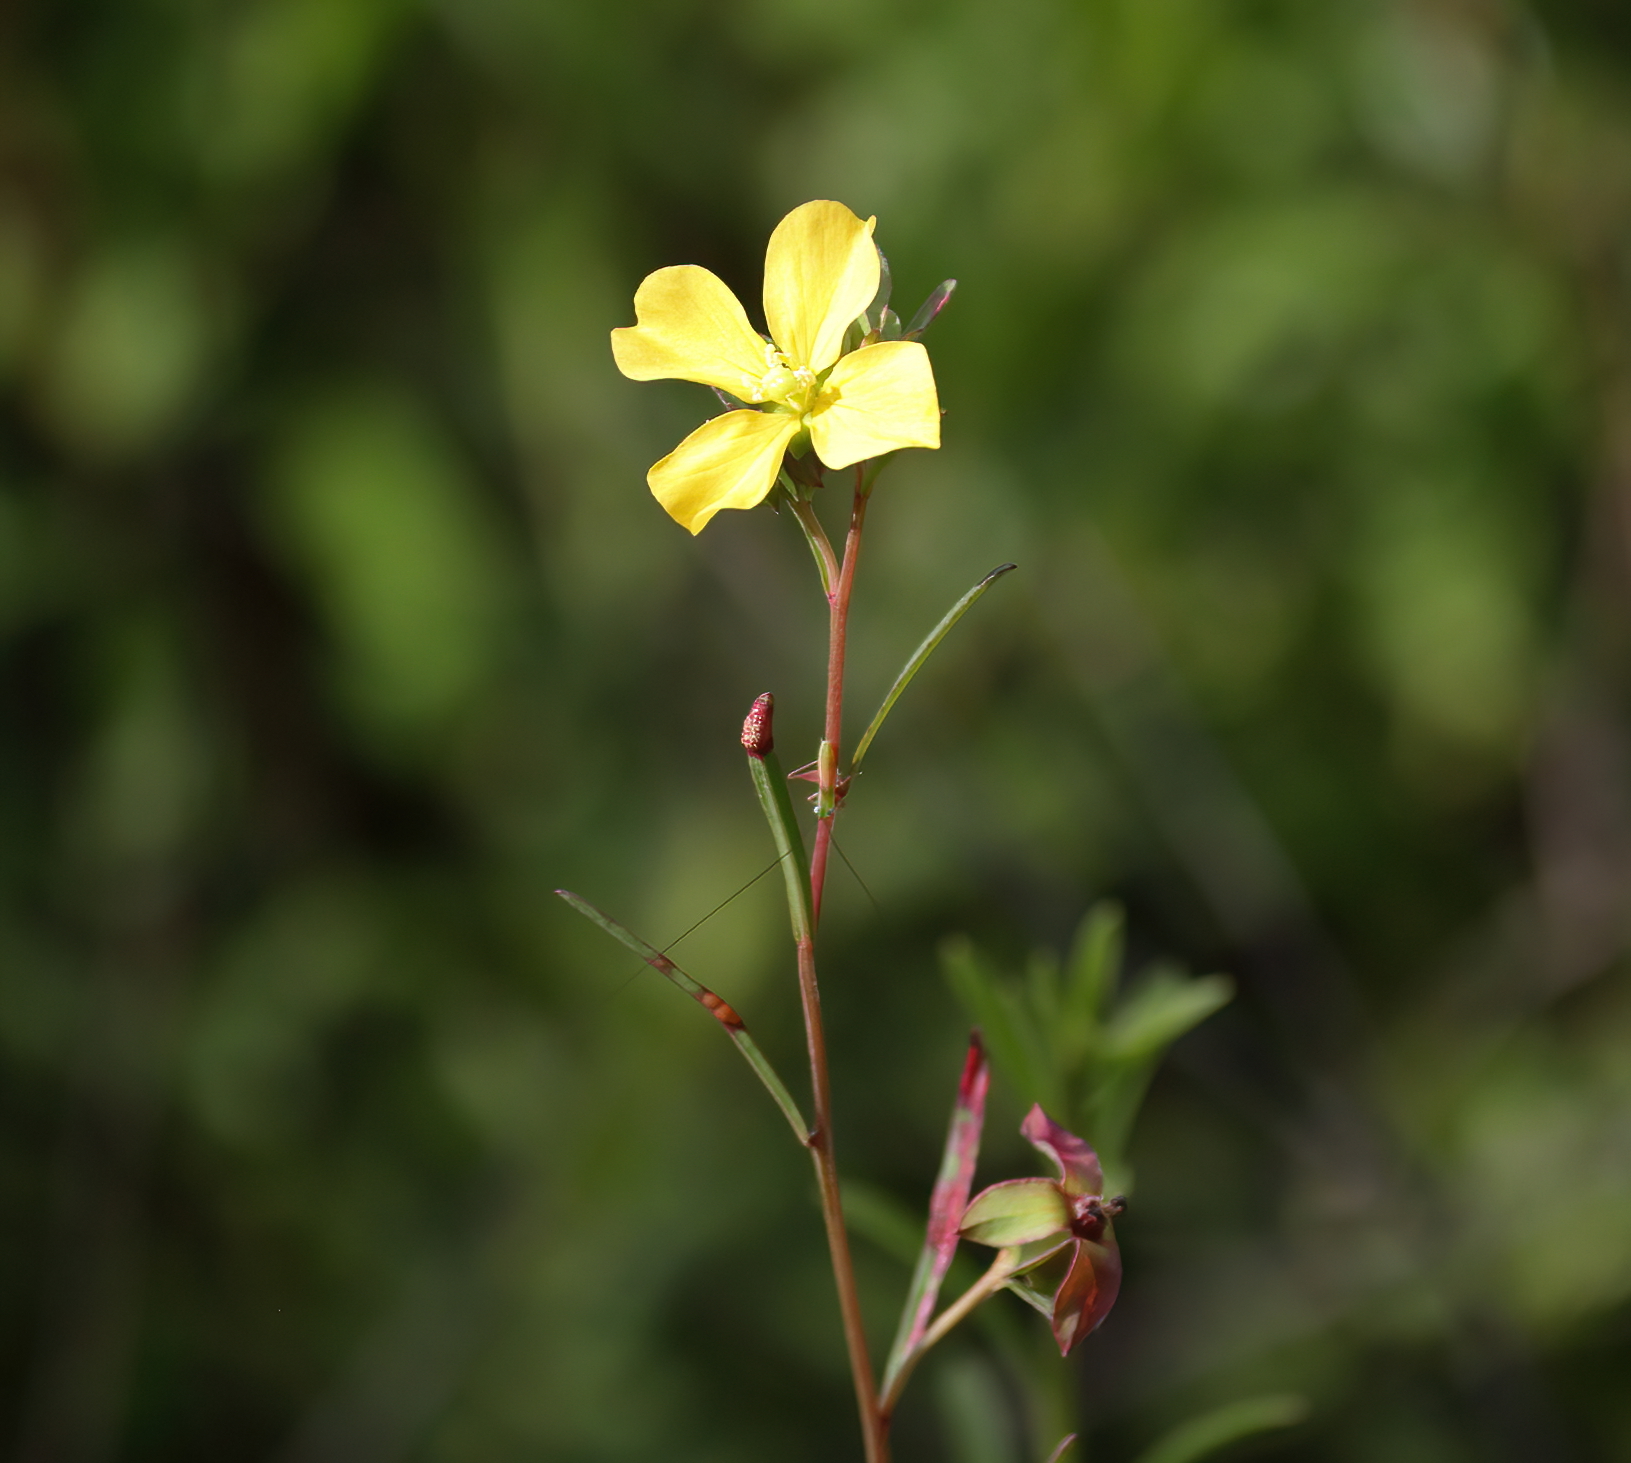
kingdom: Plantae
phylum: Tracheophyta
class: Magnoliopsida
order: Myrtales
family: Onagraceae
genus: Ludwigia
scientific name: Ludwigia maritima
